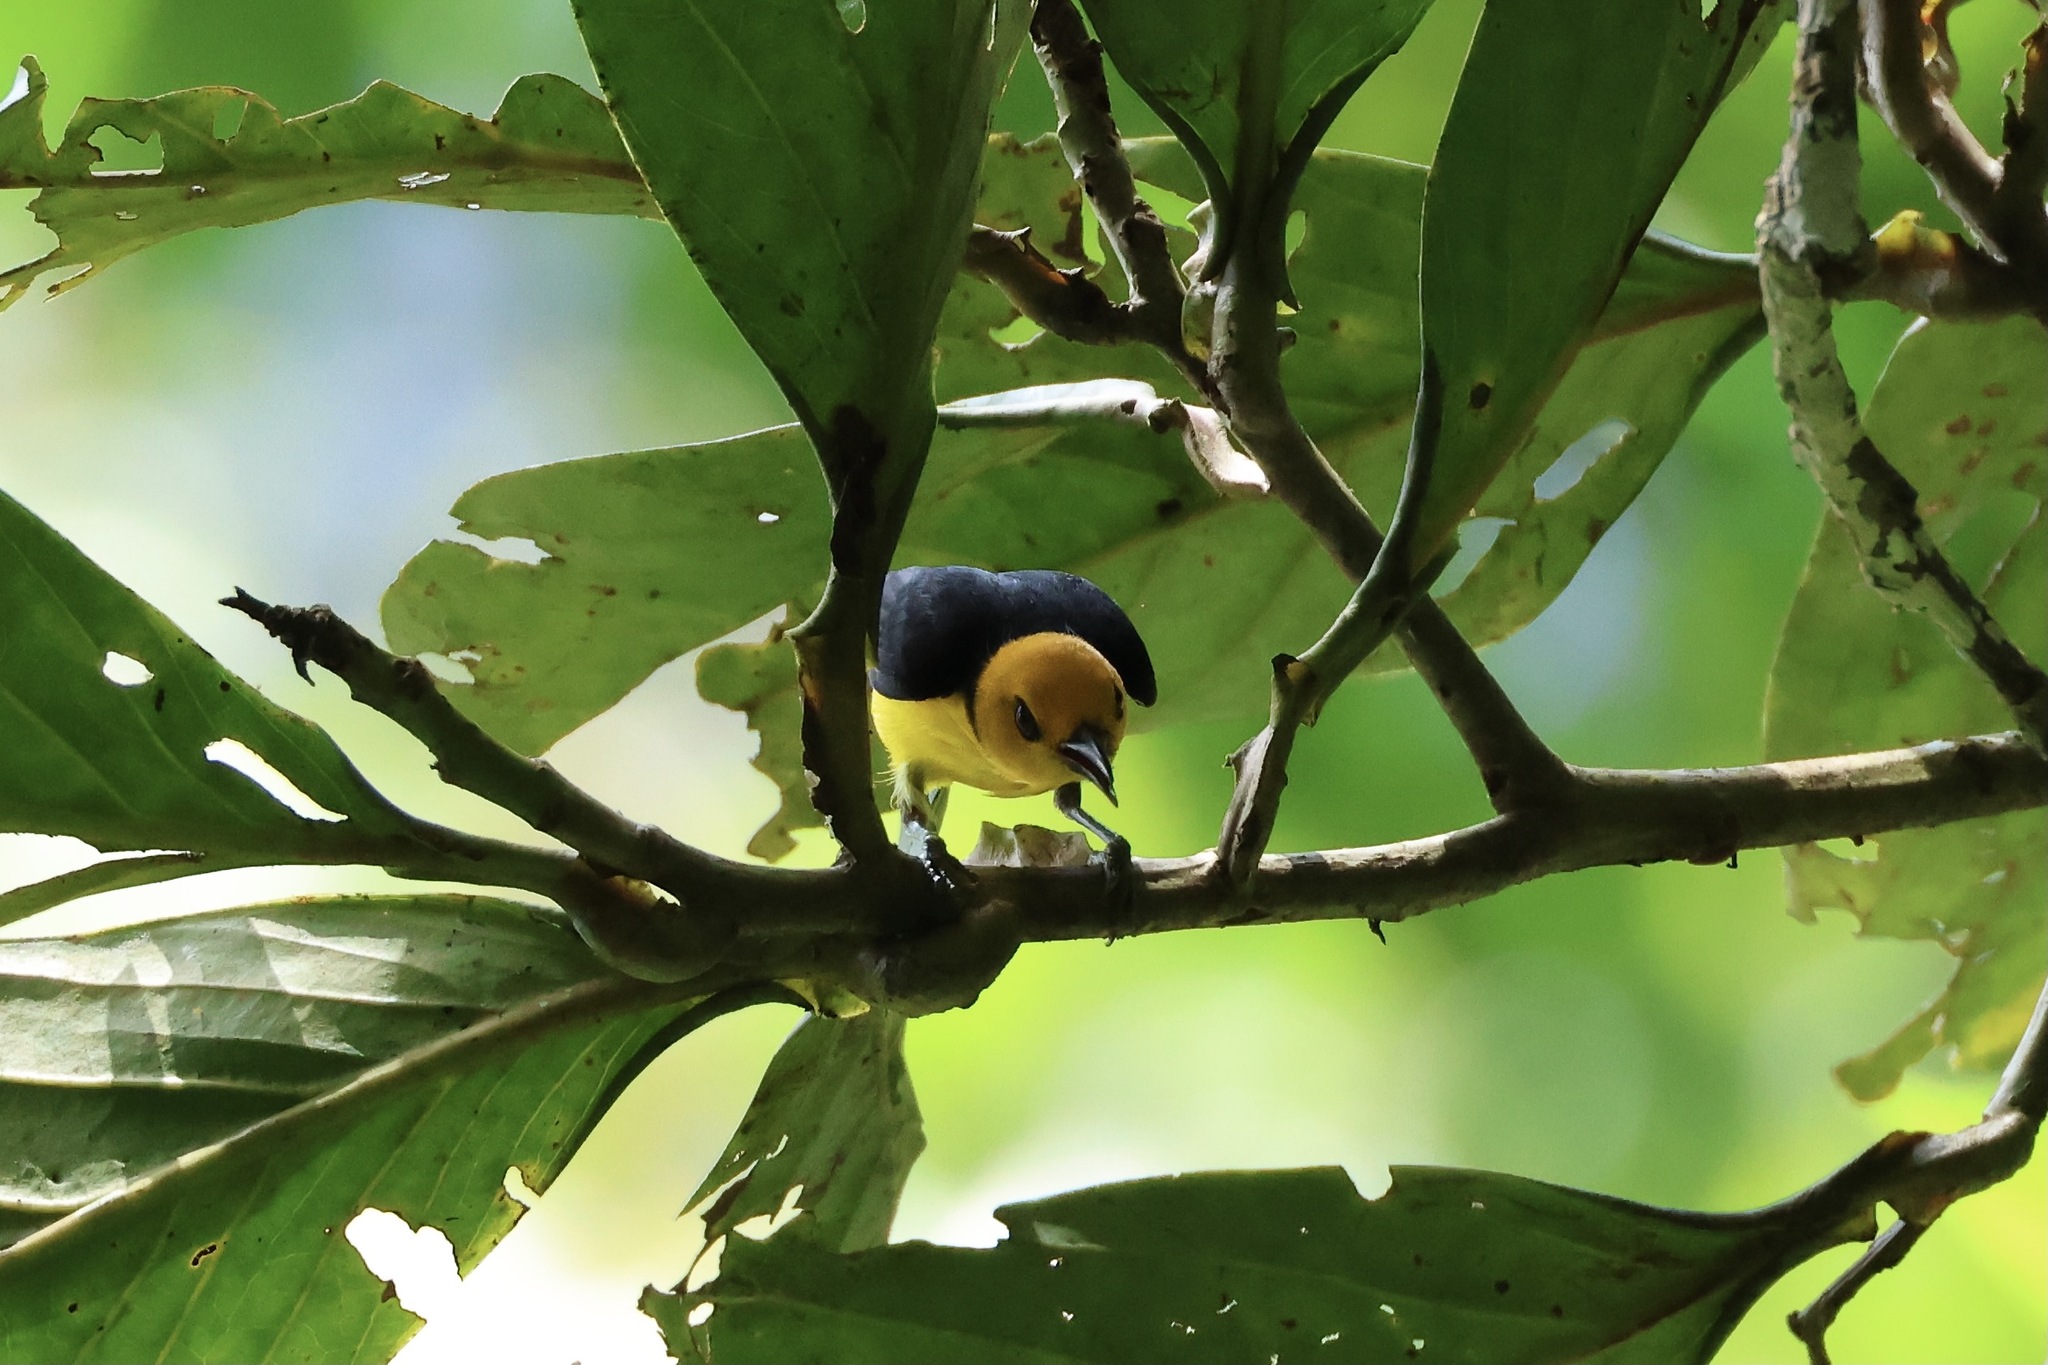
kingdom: Animalia
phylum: Chordata
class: Aves
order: Passeriformes
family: Thraupidae
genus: Chrysothlypis
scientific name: Chrysothlypis chrysomelas
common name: Black-and-yellow tanager
